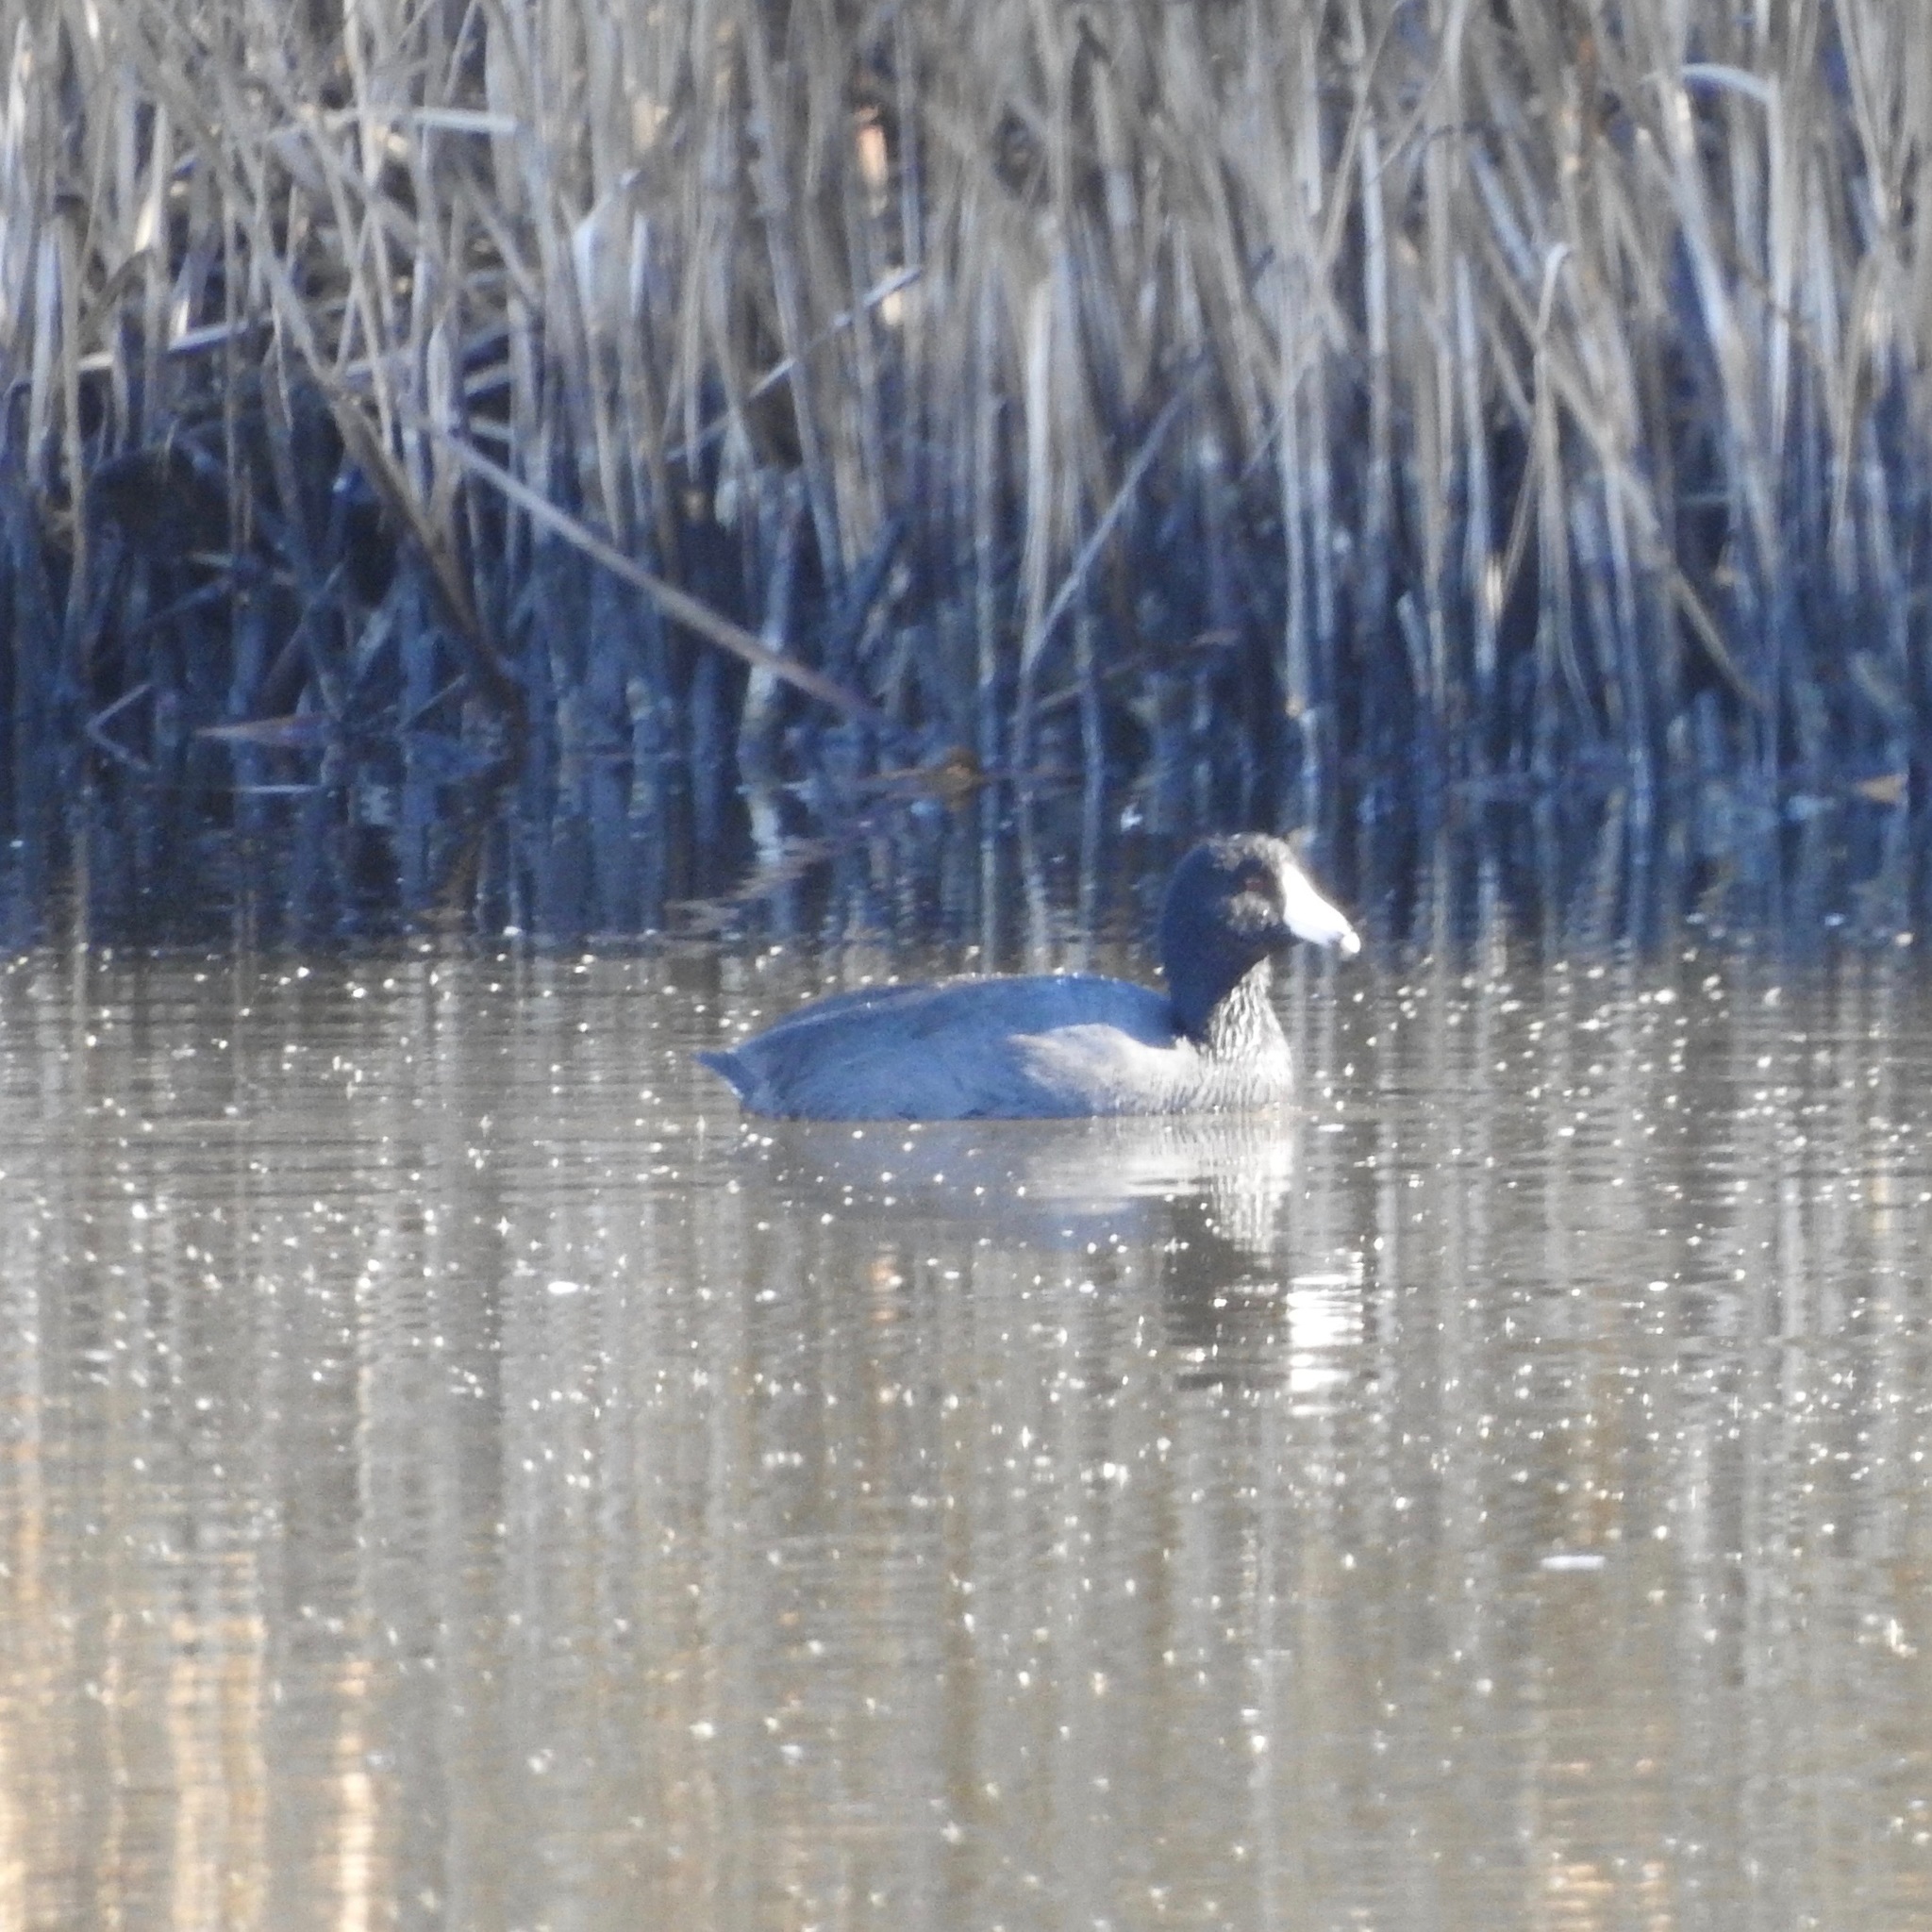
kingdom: Animalia
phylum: Chordata
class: Aves
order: Gruiformes
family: Rallidae
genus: Fulica
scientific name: Fulica americana
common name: American coot
